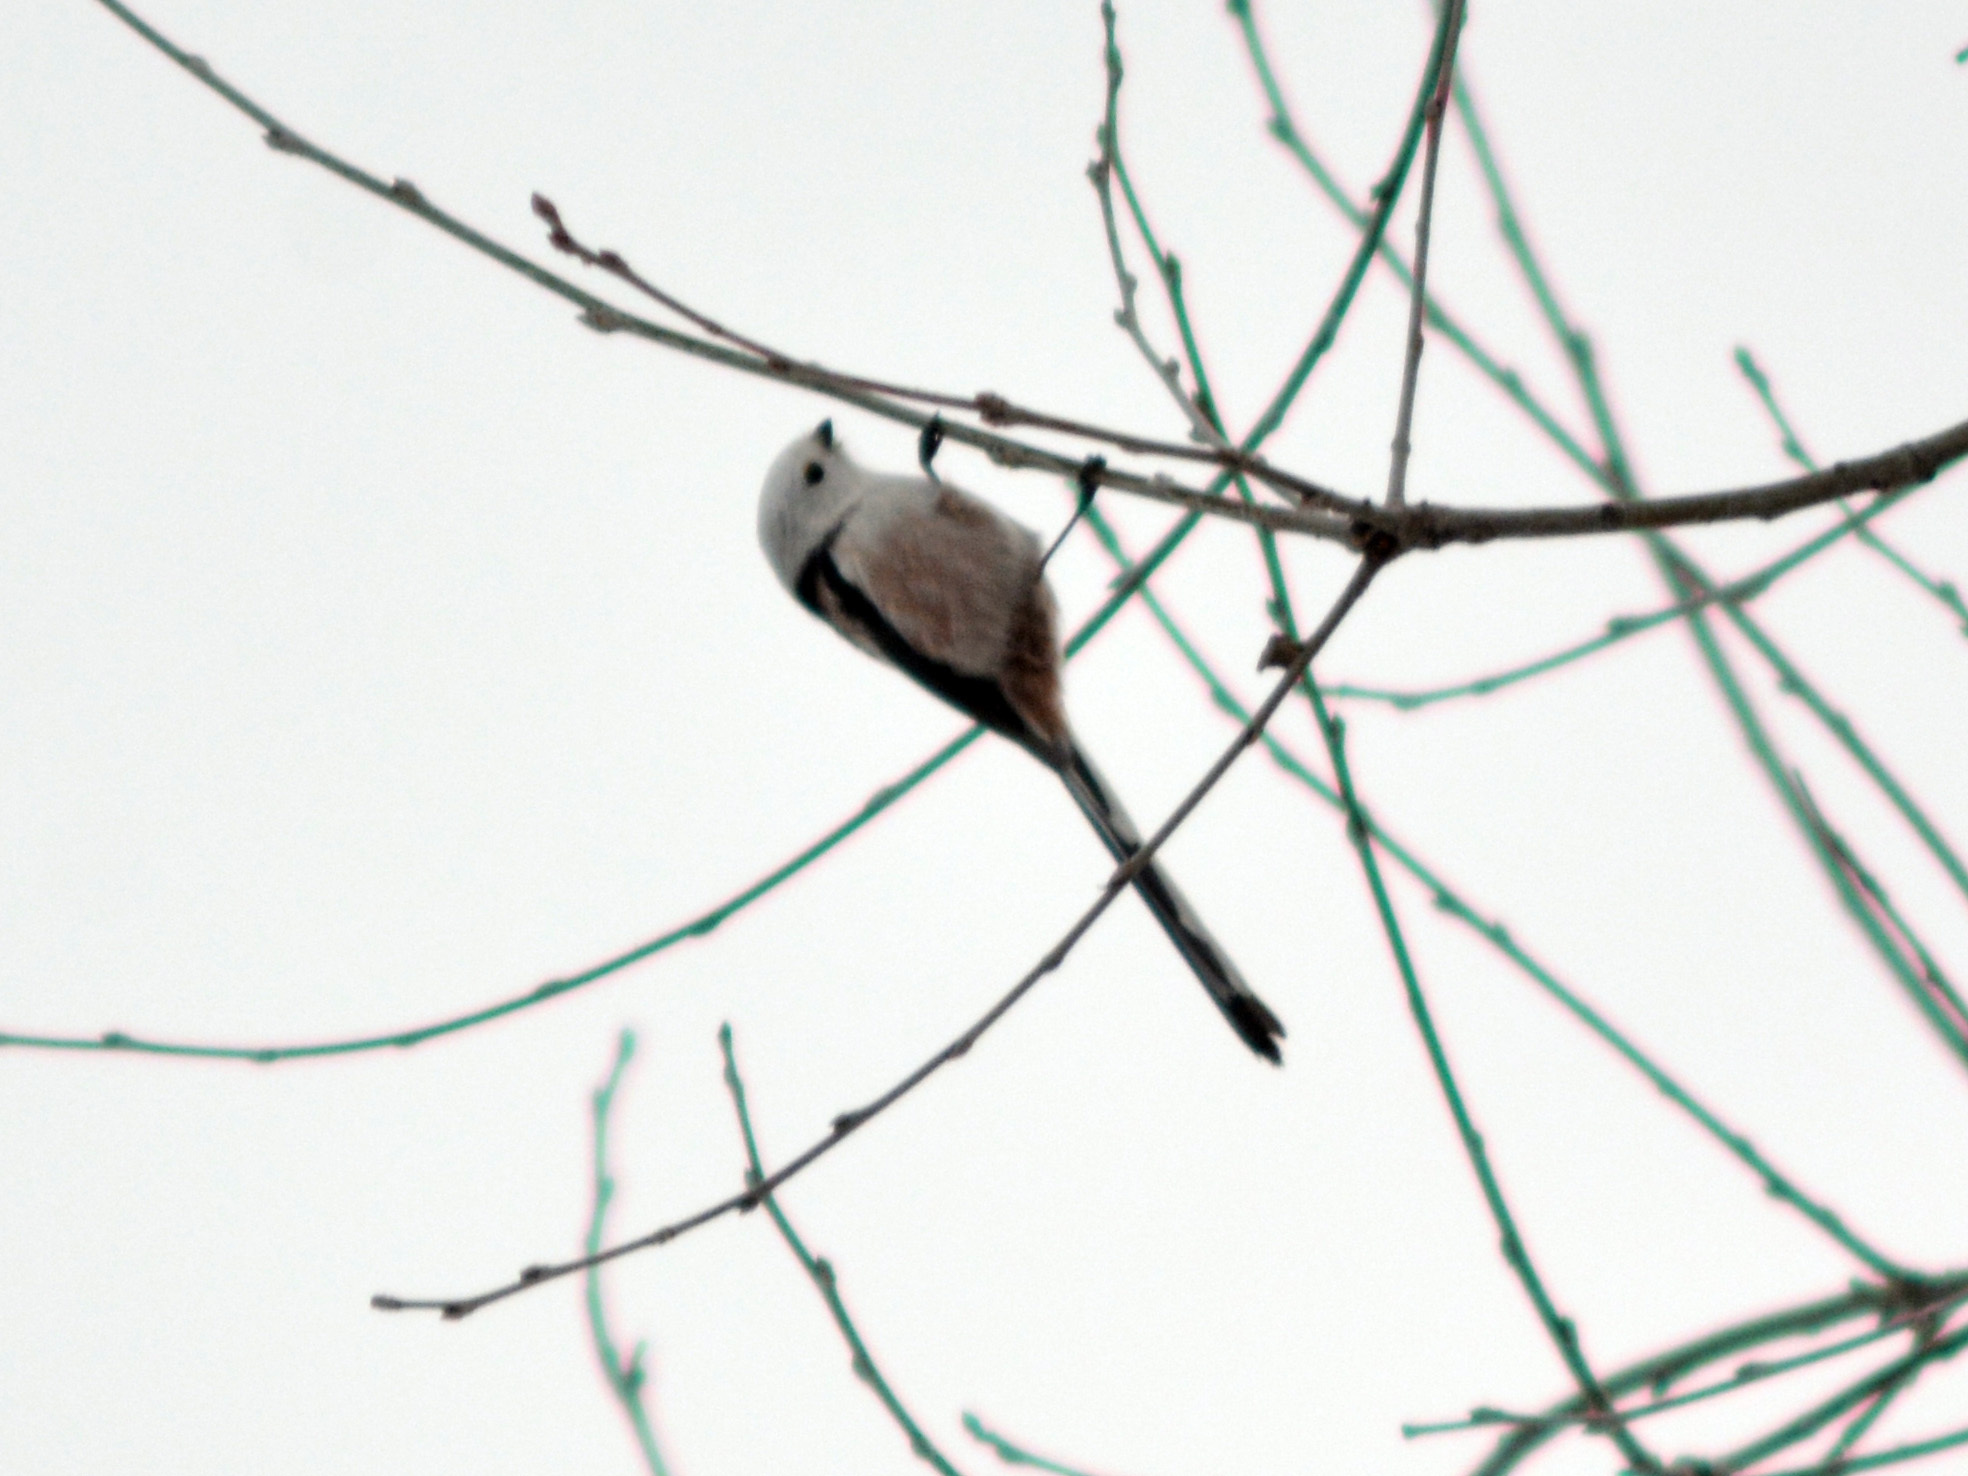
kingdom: Animalia
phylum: Chordata
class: Aves
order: Passeriformes
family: Aegithalidae
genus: Aegithalos
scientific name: Aegithalos caudatus
